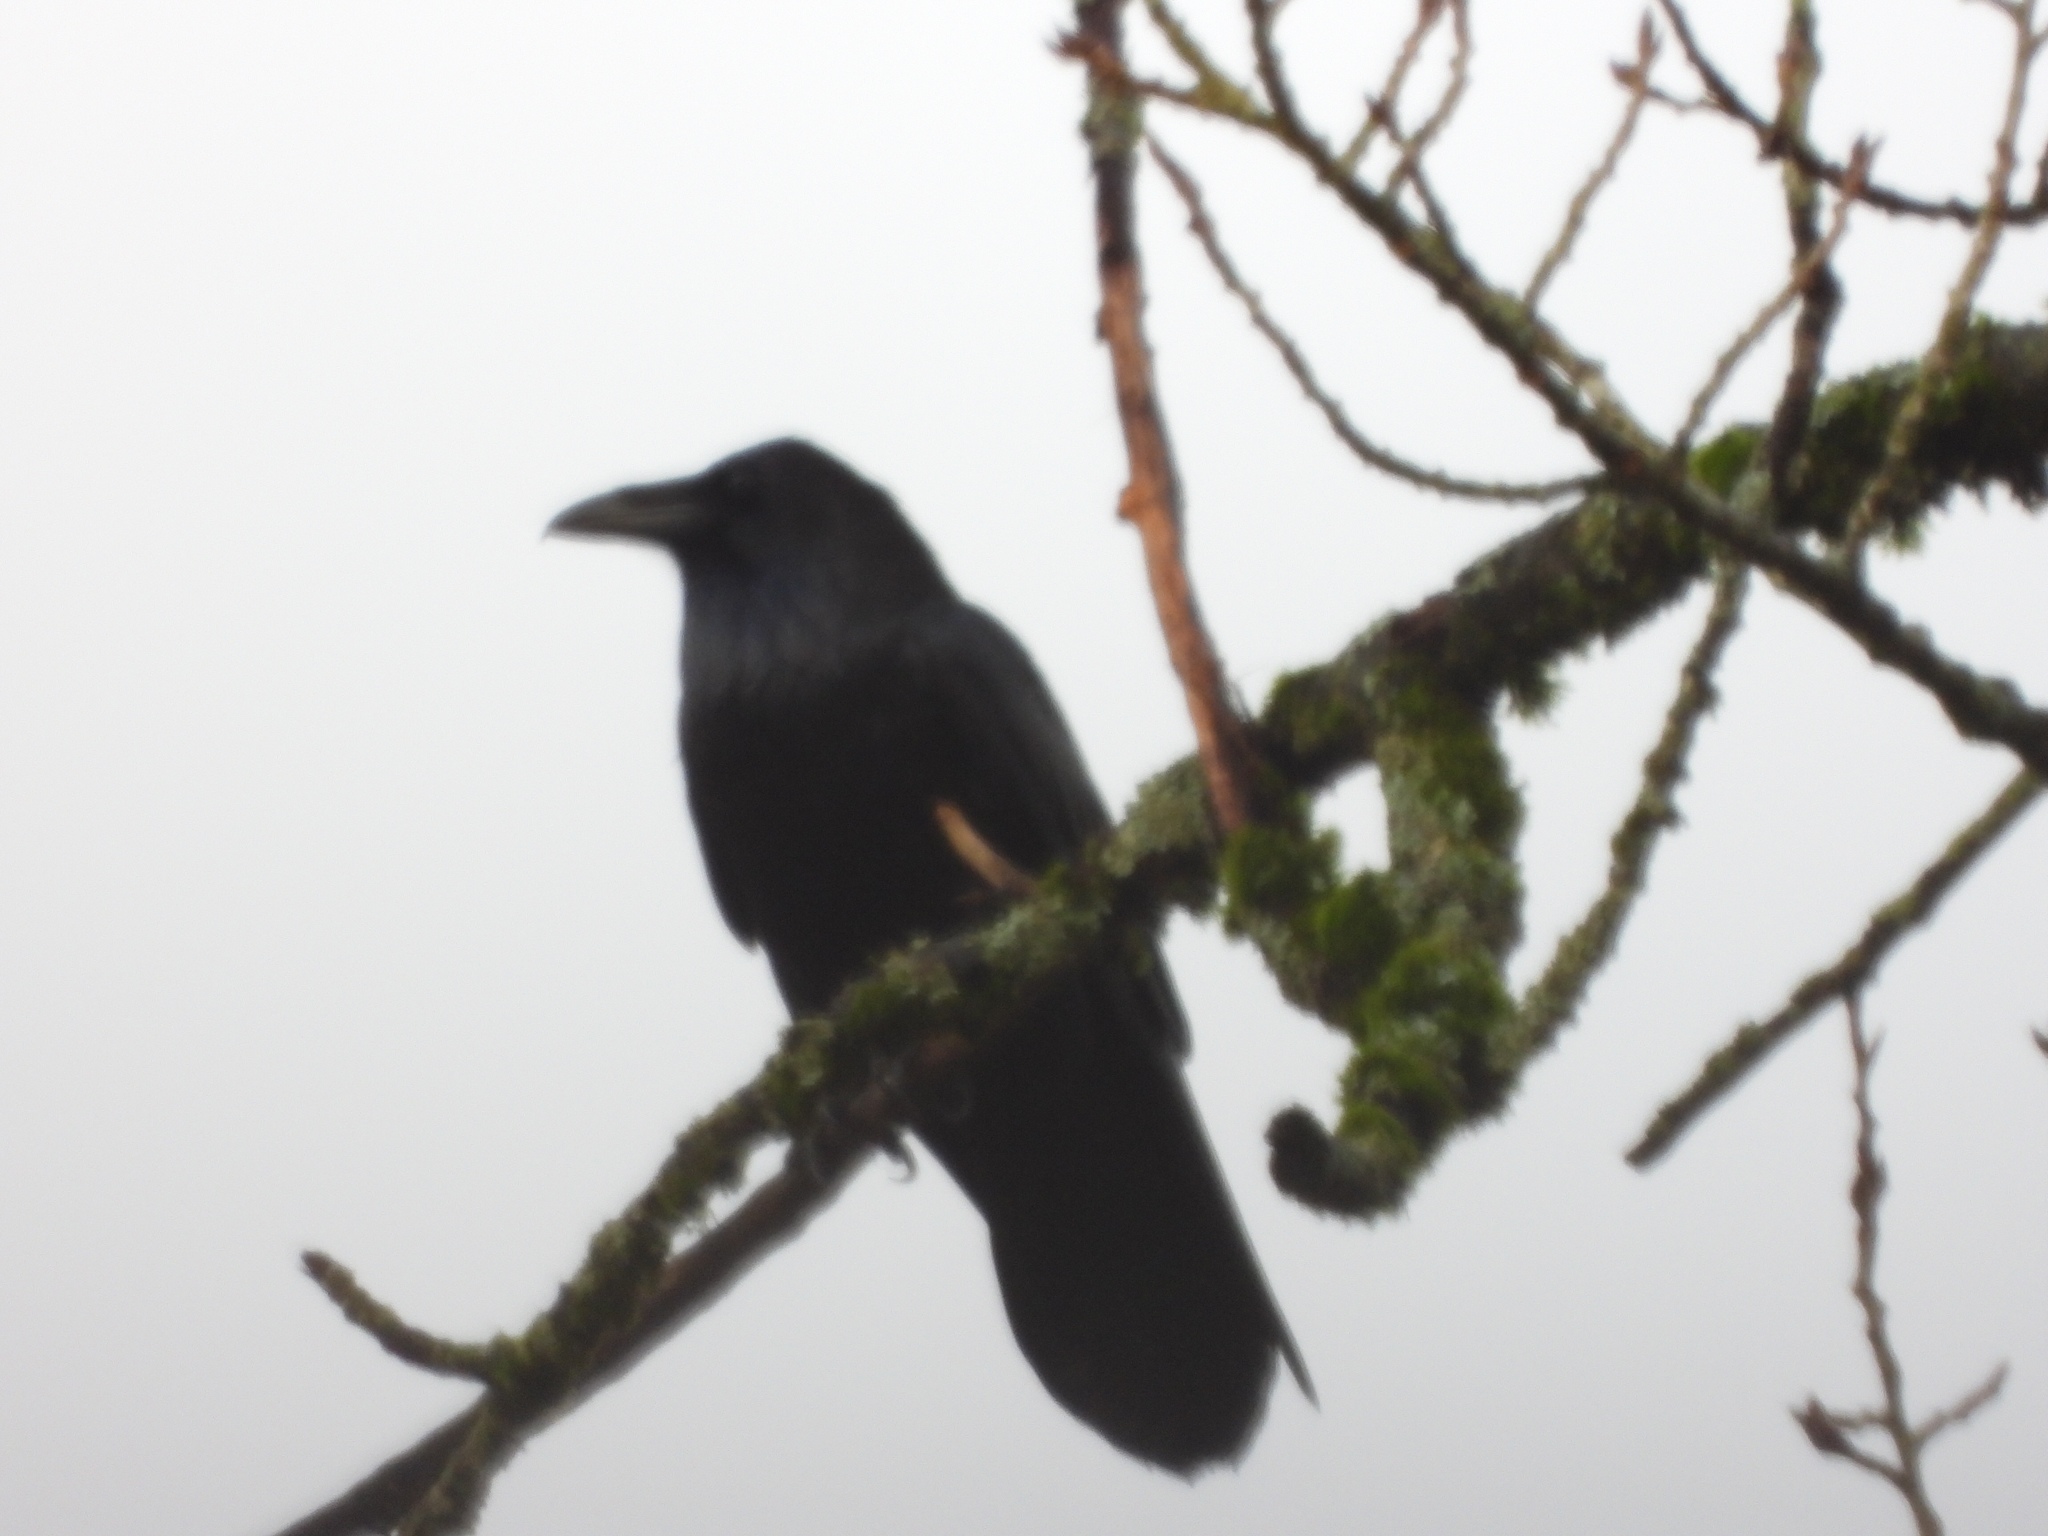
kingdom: Animalia
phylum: Chordata
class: Aves
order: Passeriformes
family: Corvidae
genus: Corvus
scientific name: Corvus corax
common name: Common raven
